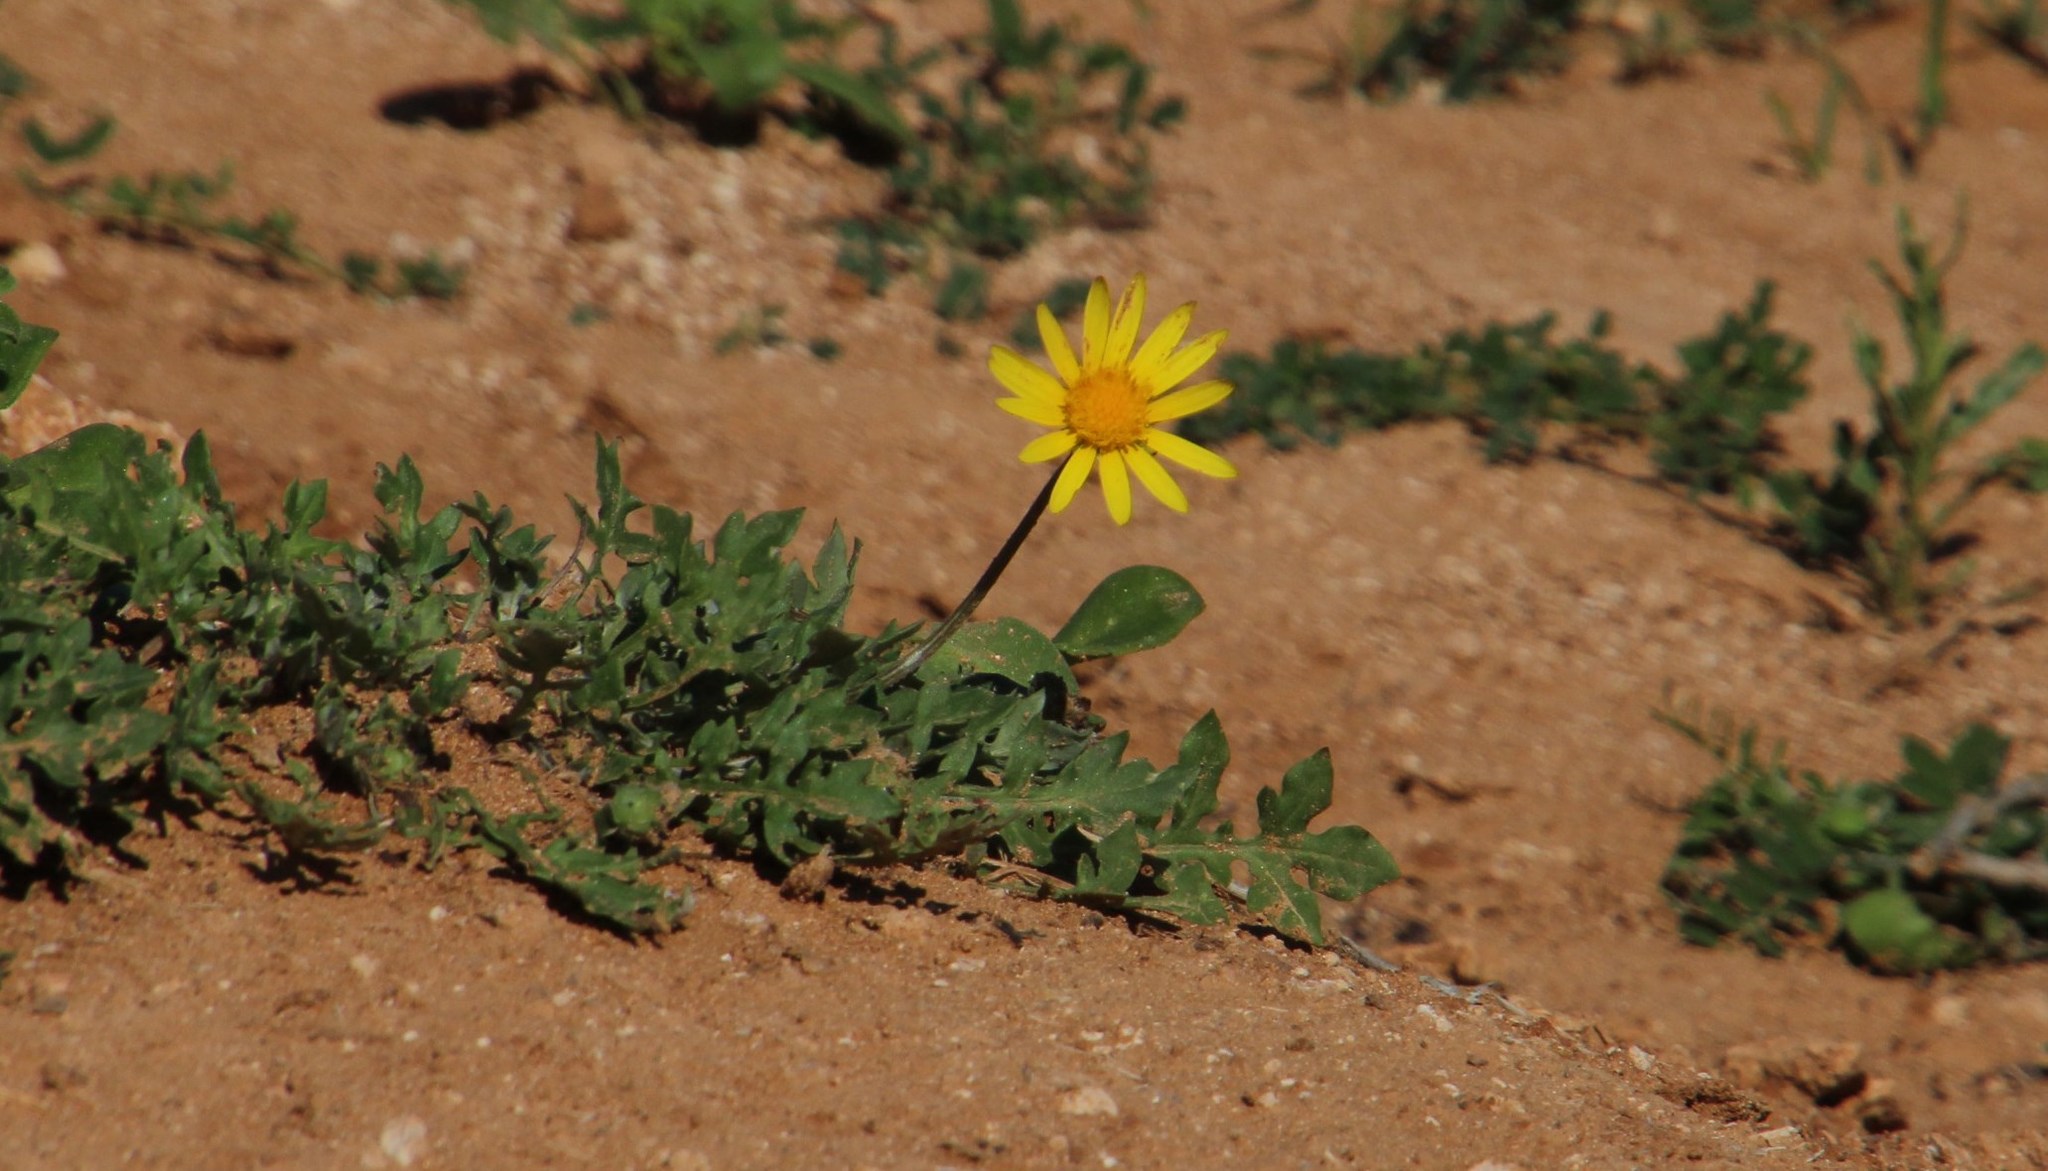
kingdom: Plantae
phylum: Tracheophyta
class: Magnoliopsida
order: Asterales
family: Asteraceae
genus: Arctotheca
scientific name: Arctotheca calendula
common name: Capeweed
